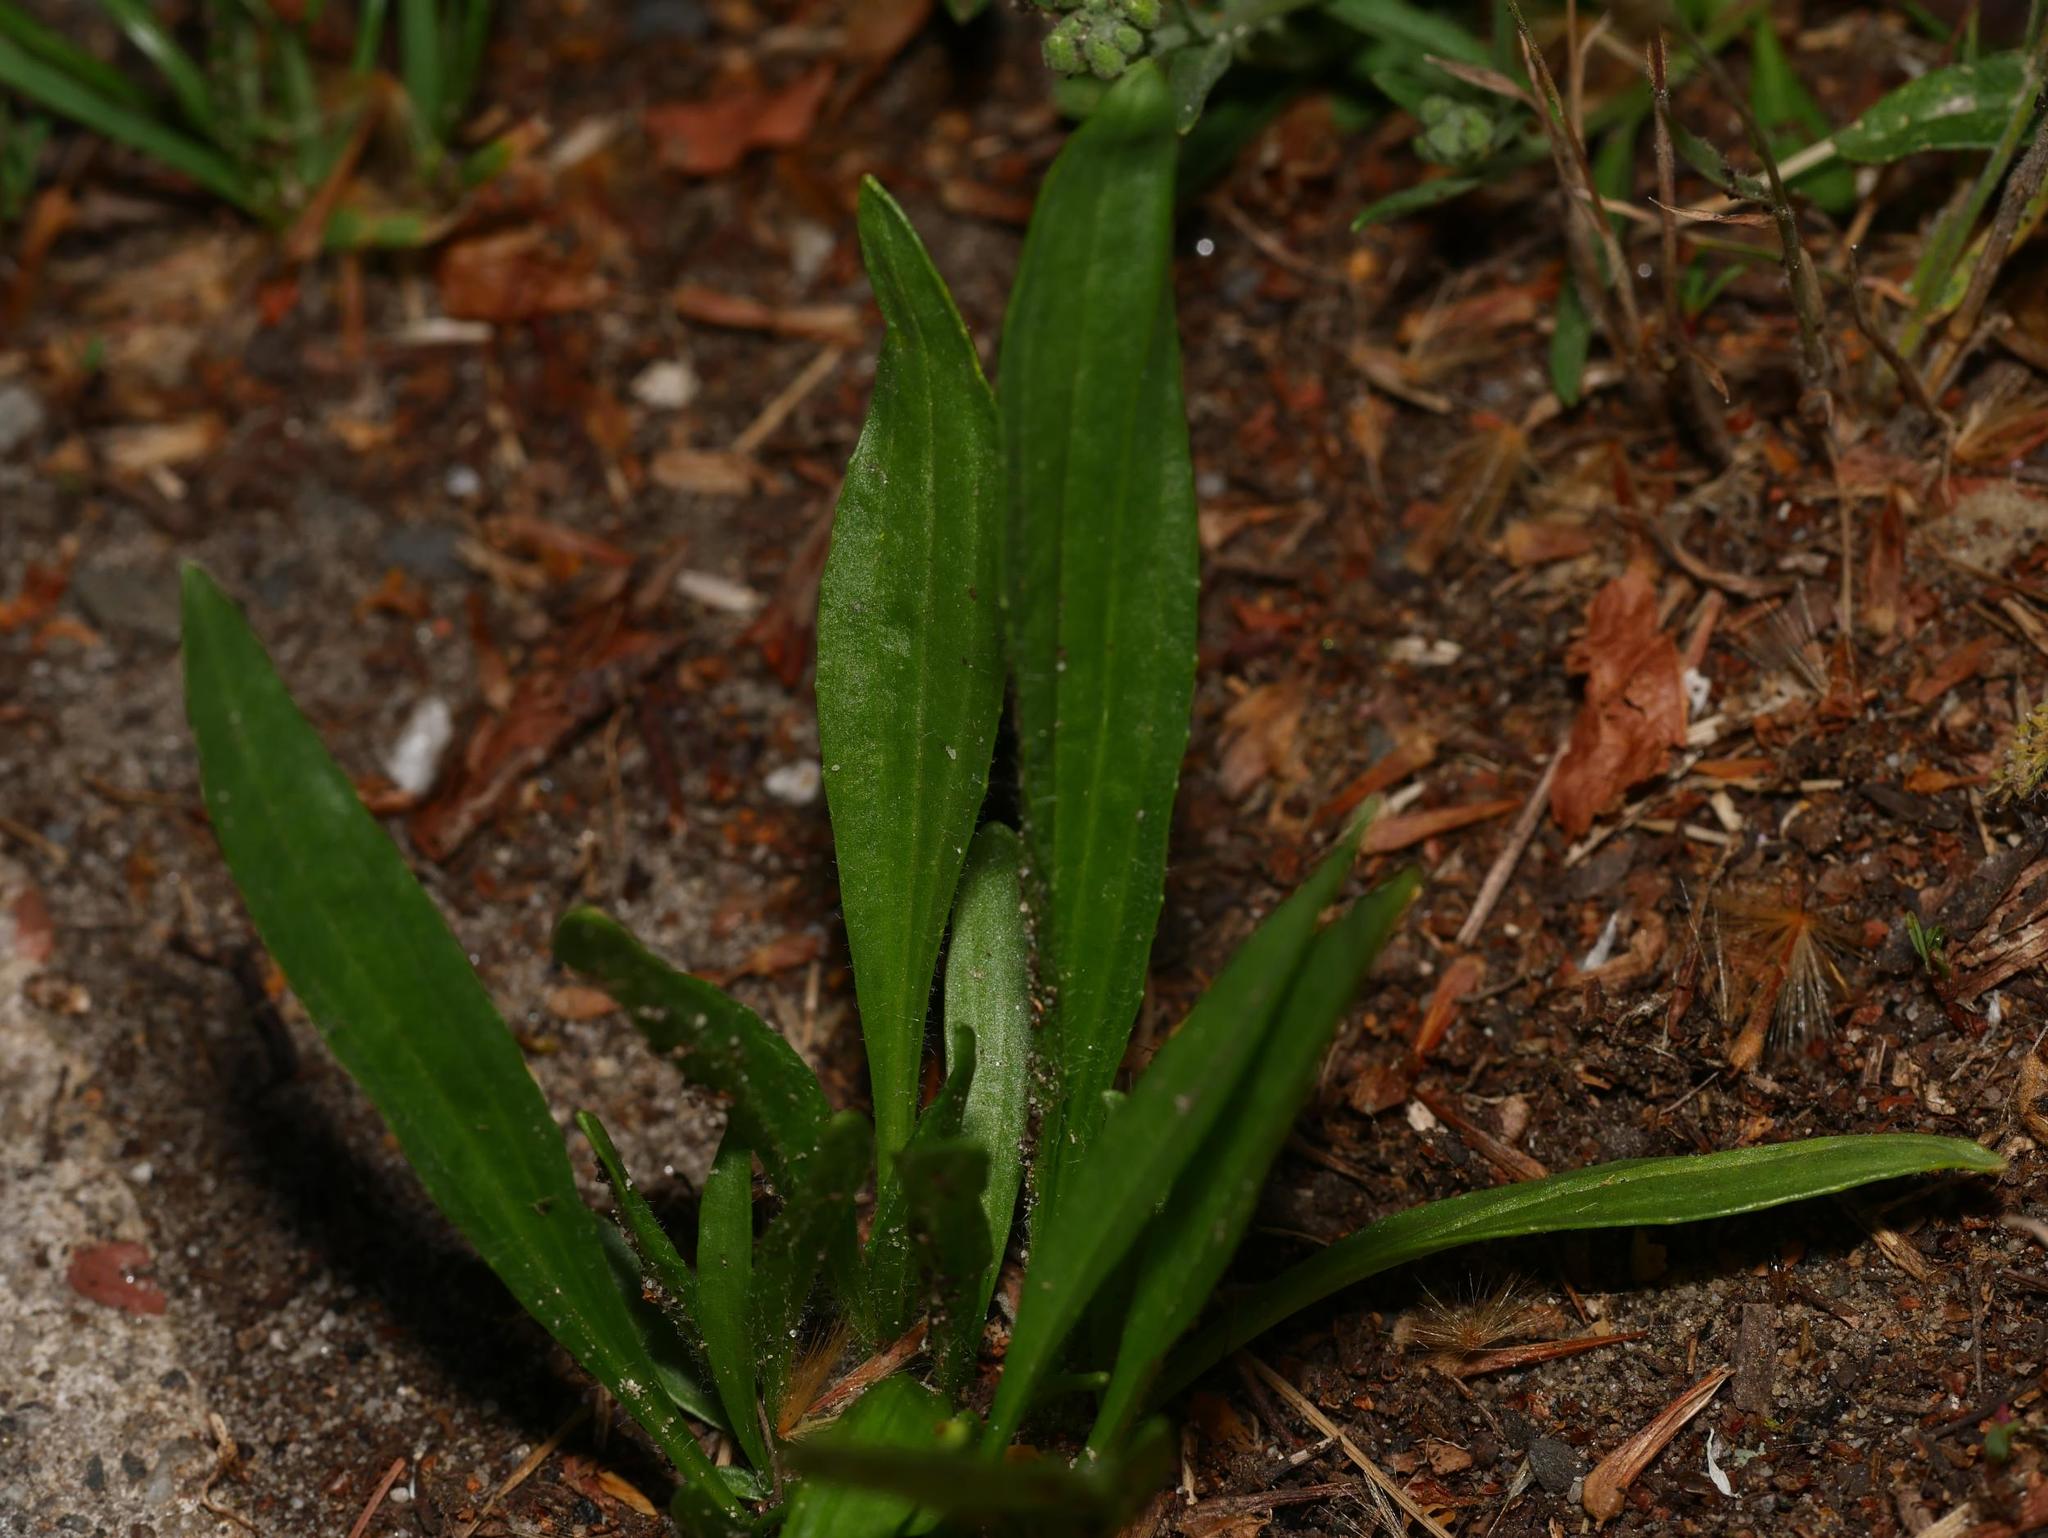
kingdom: Plantae
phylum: Tracheophyta
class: Magnoliopsida
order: Lamiales
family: Plantaginaceae
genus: Plantago
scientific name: Plantago lanceolata
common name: Ribwort plantain
